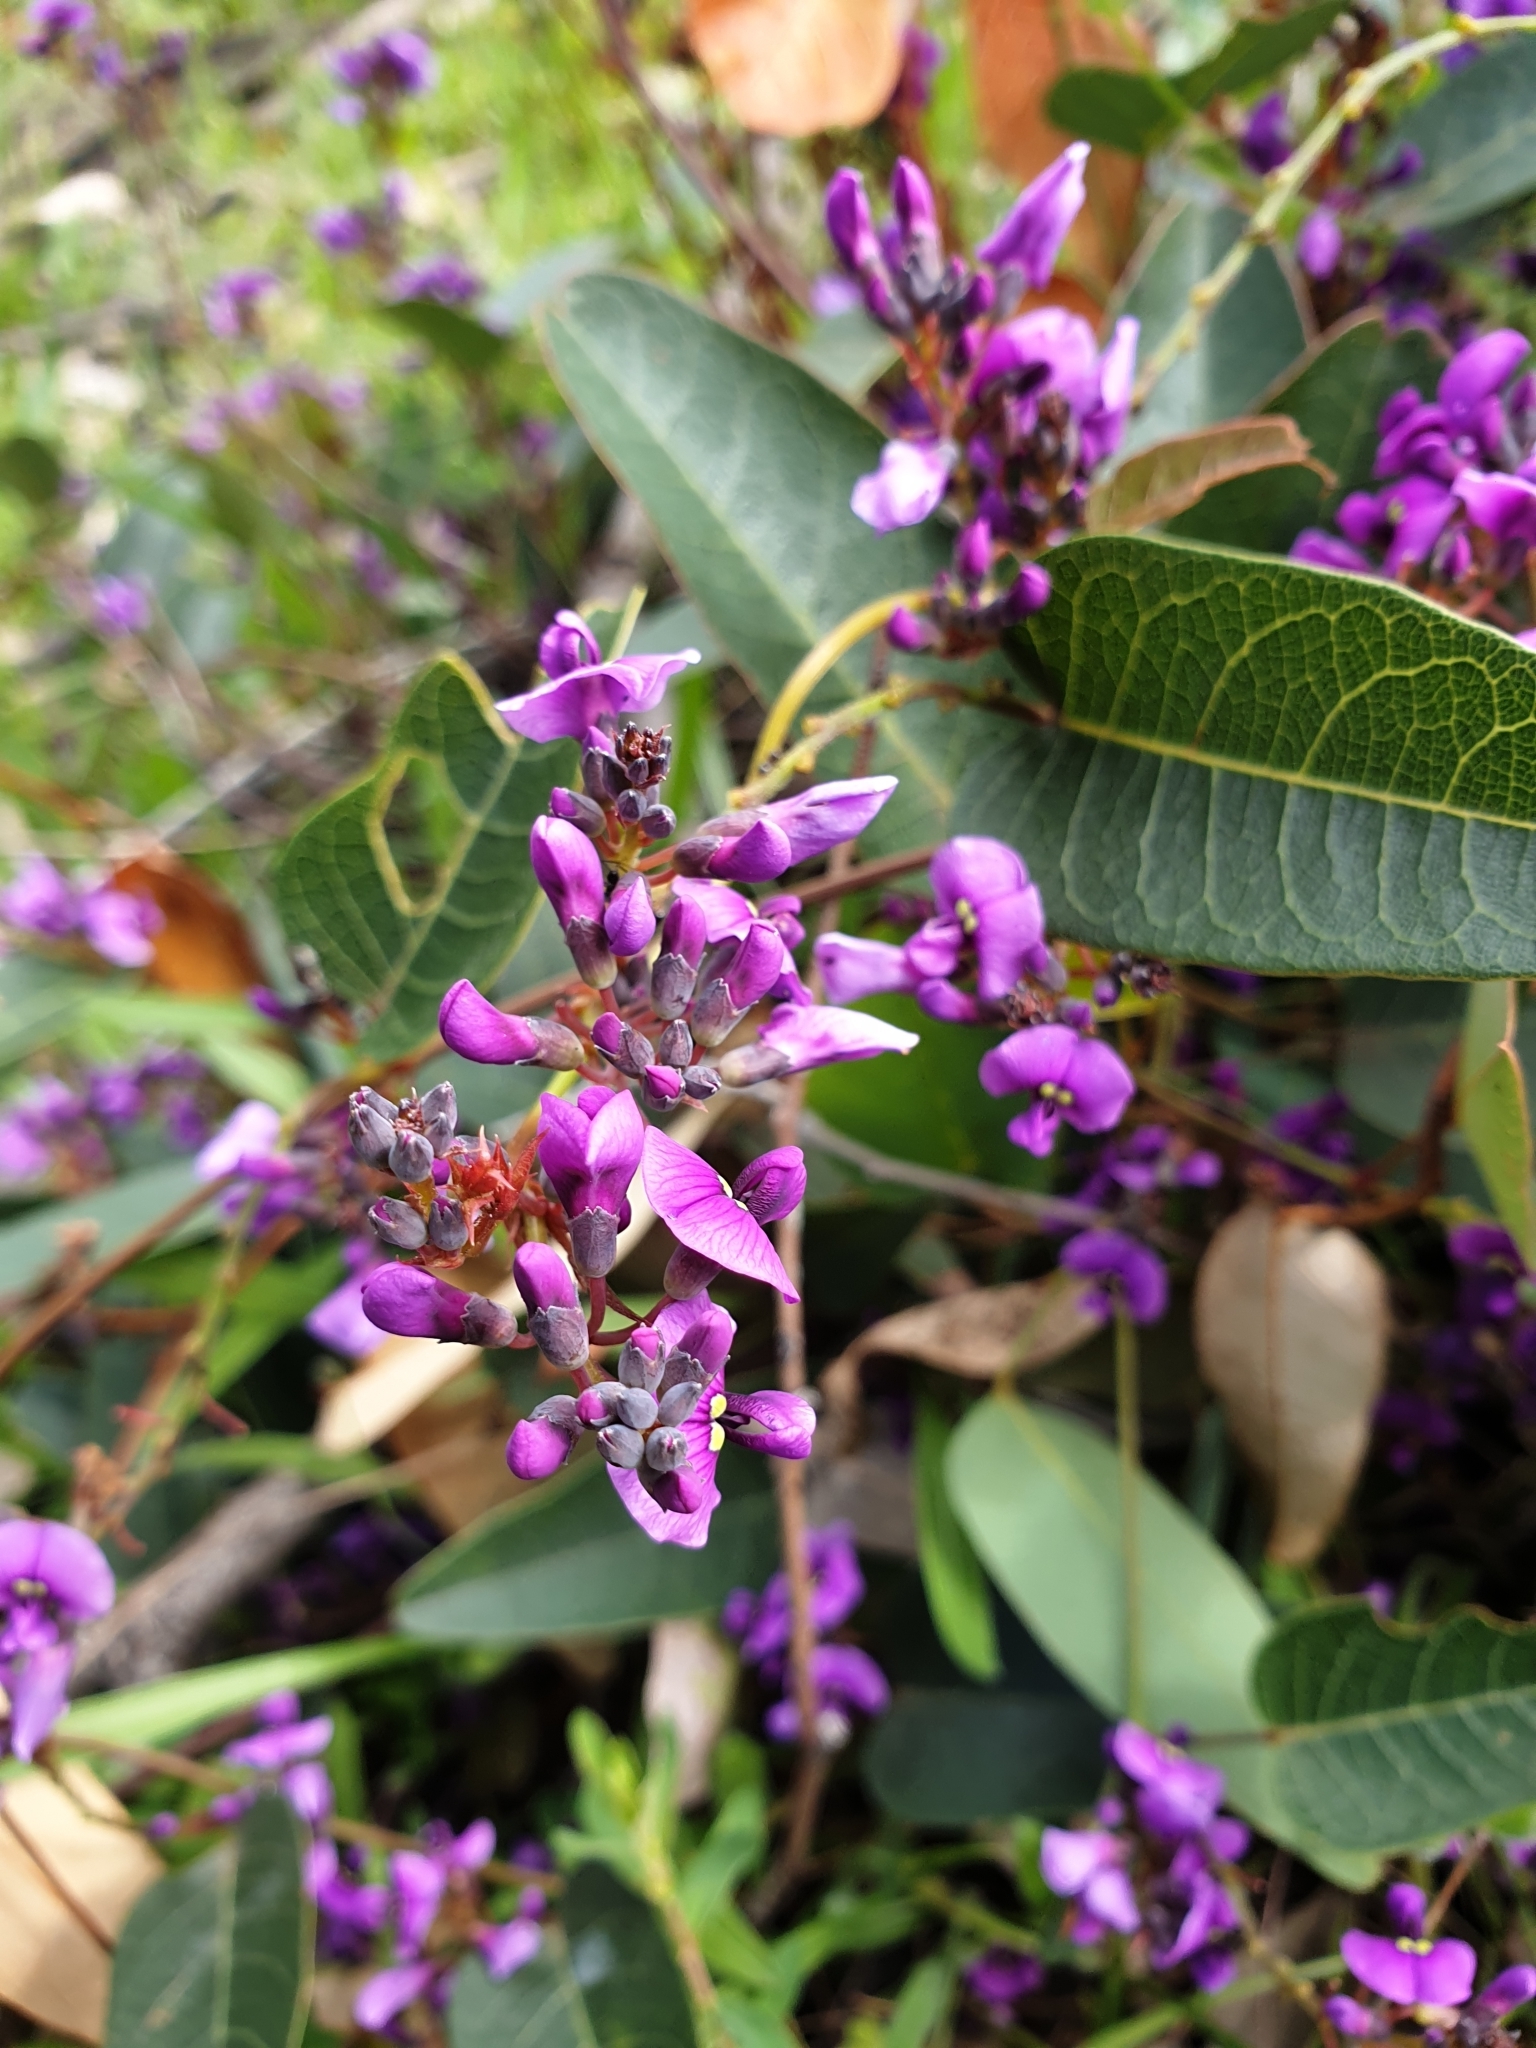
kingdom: Plantae
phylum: Tracheophyta
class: Magnoliopsida
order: Fabales
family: Fabaceae
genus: Hardenbergia
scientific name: Hardenbergia violacea
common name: Coral-pea
